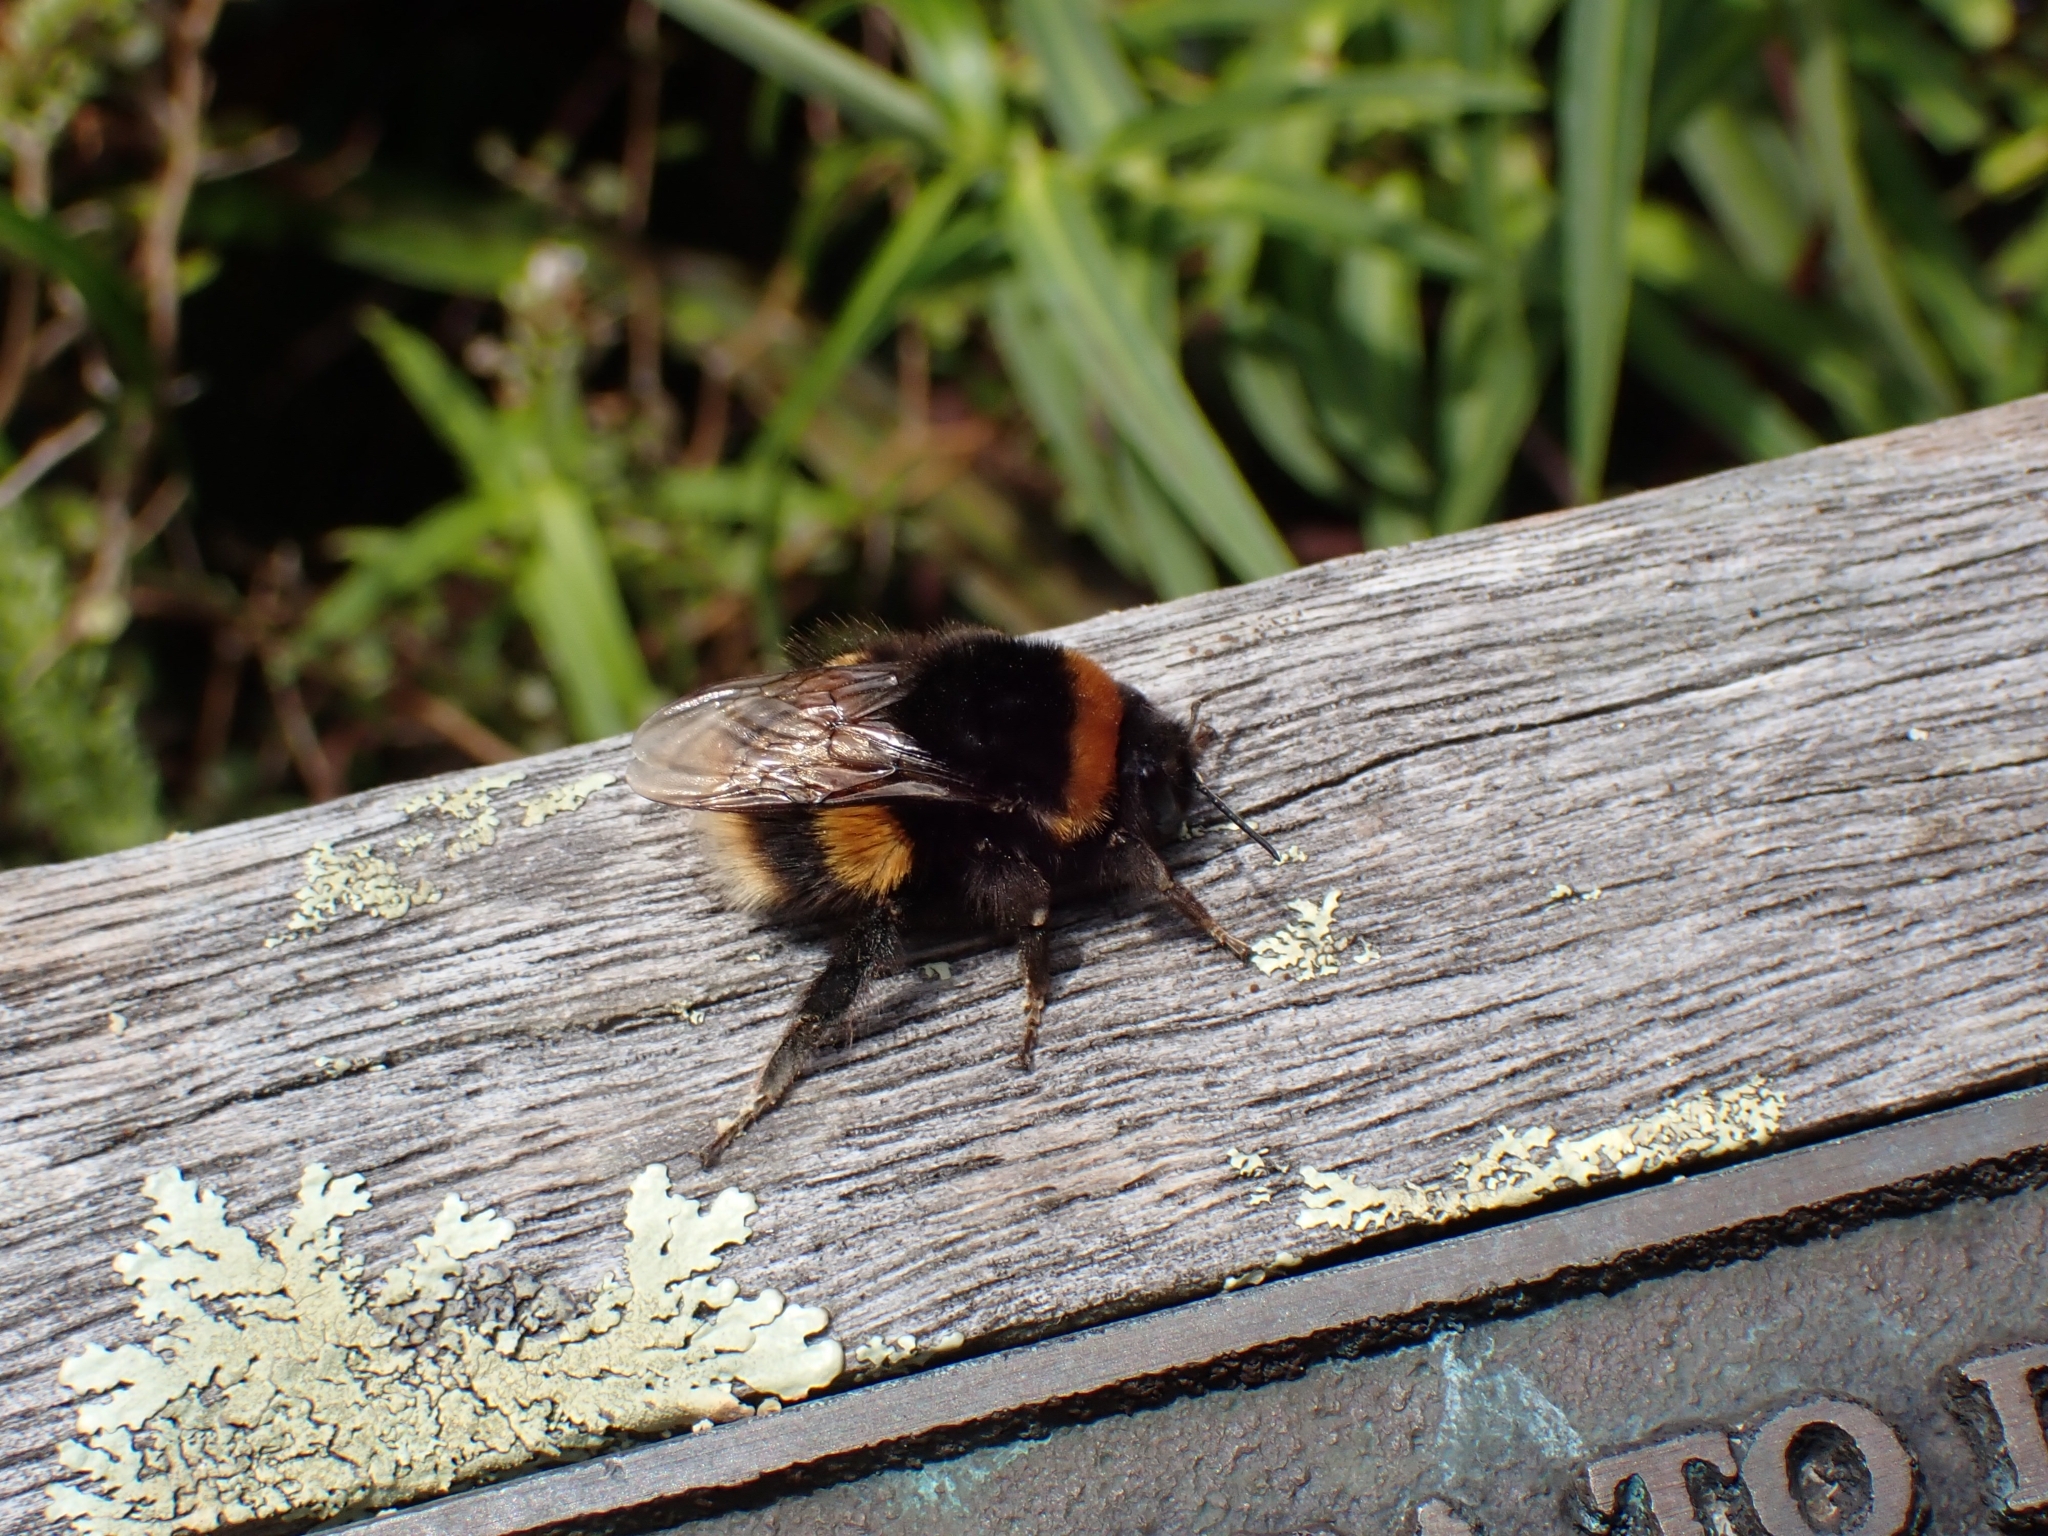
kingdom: Animalia
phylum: Arthropoda
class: Insecta
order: Hymenoptera
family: Apidae
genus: Bombus
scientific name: Bombus terrestris
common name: Buff-tailed bumblebee
